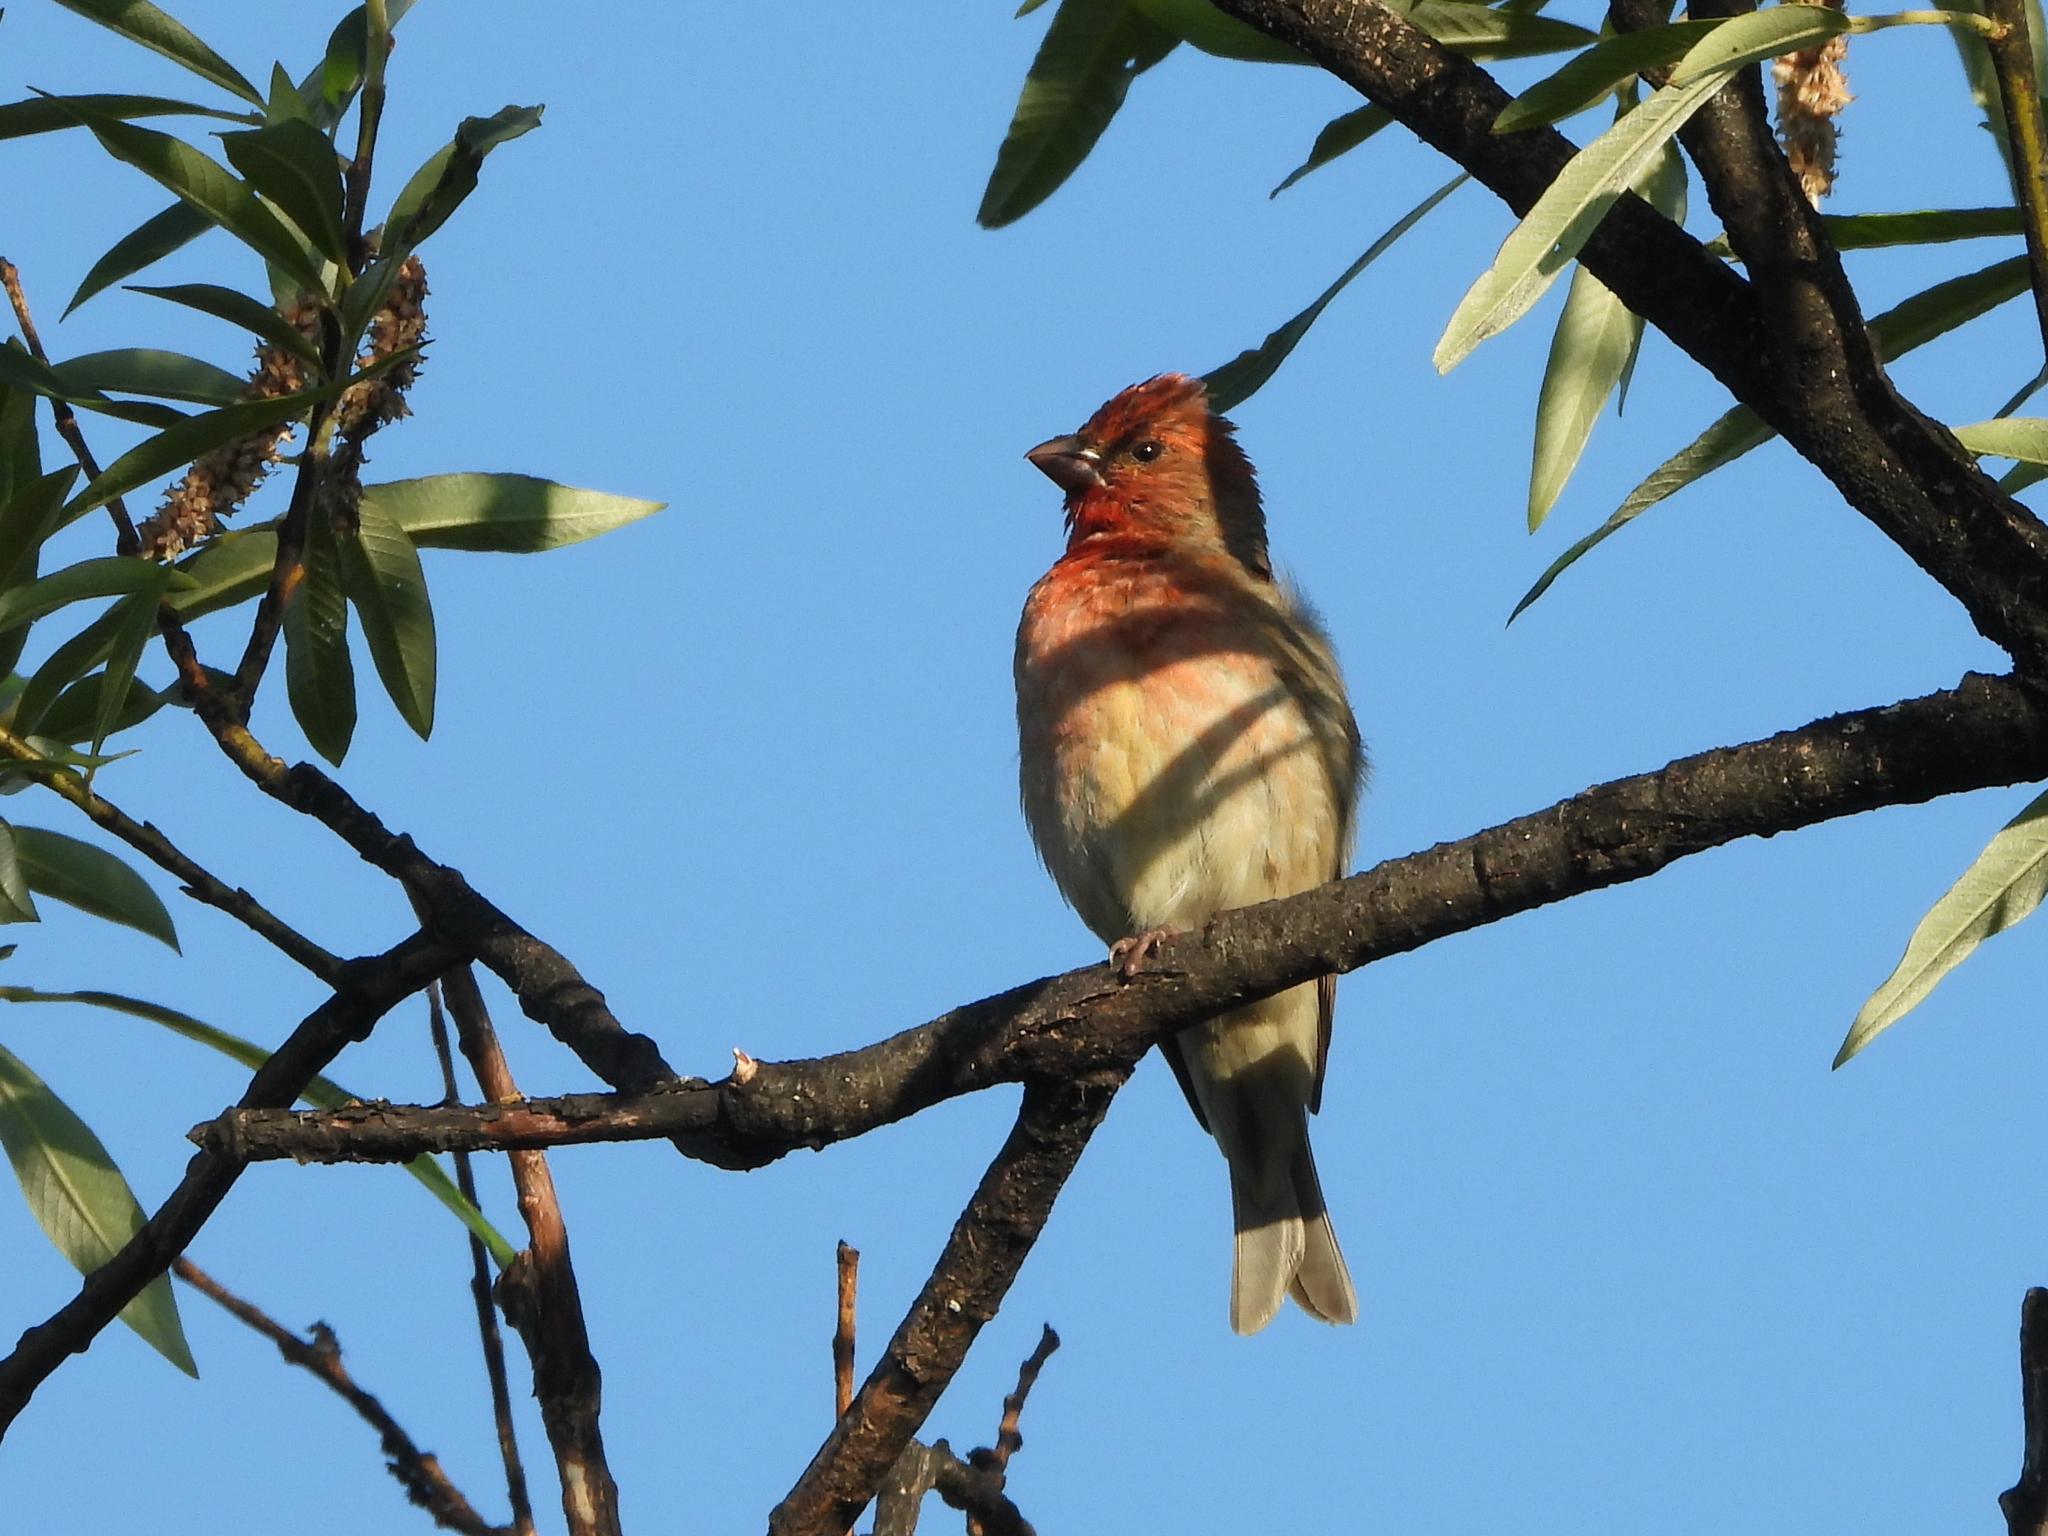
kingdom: Animalia
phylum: Chordata
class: Aves
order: Passeriformes
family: Fringillidae
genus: Carpodacus
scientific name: Carpodacus erythrinus
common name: Common rosefinch
